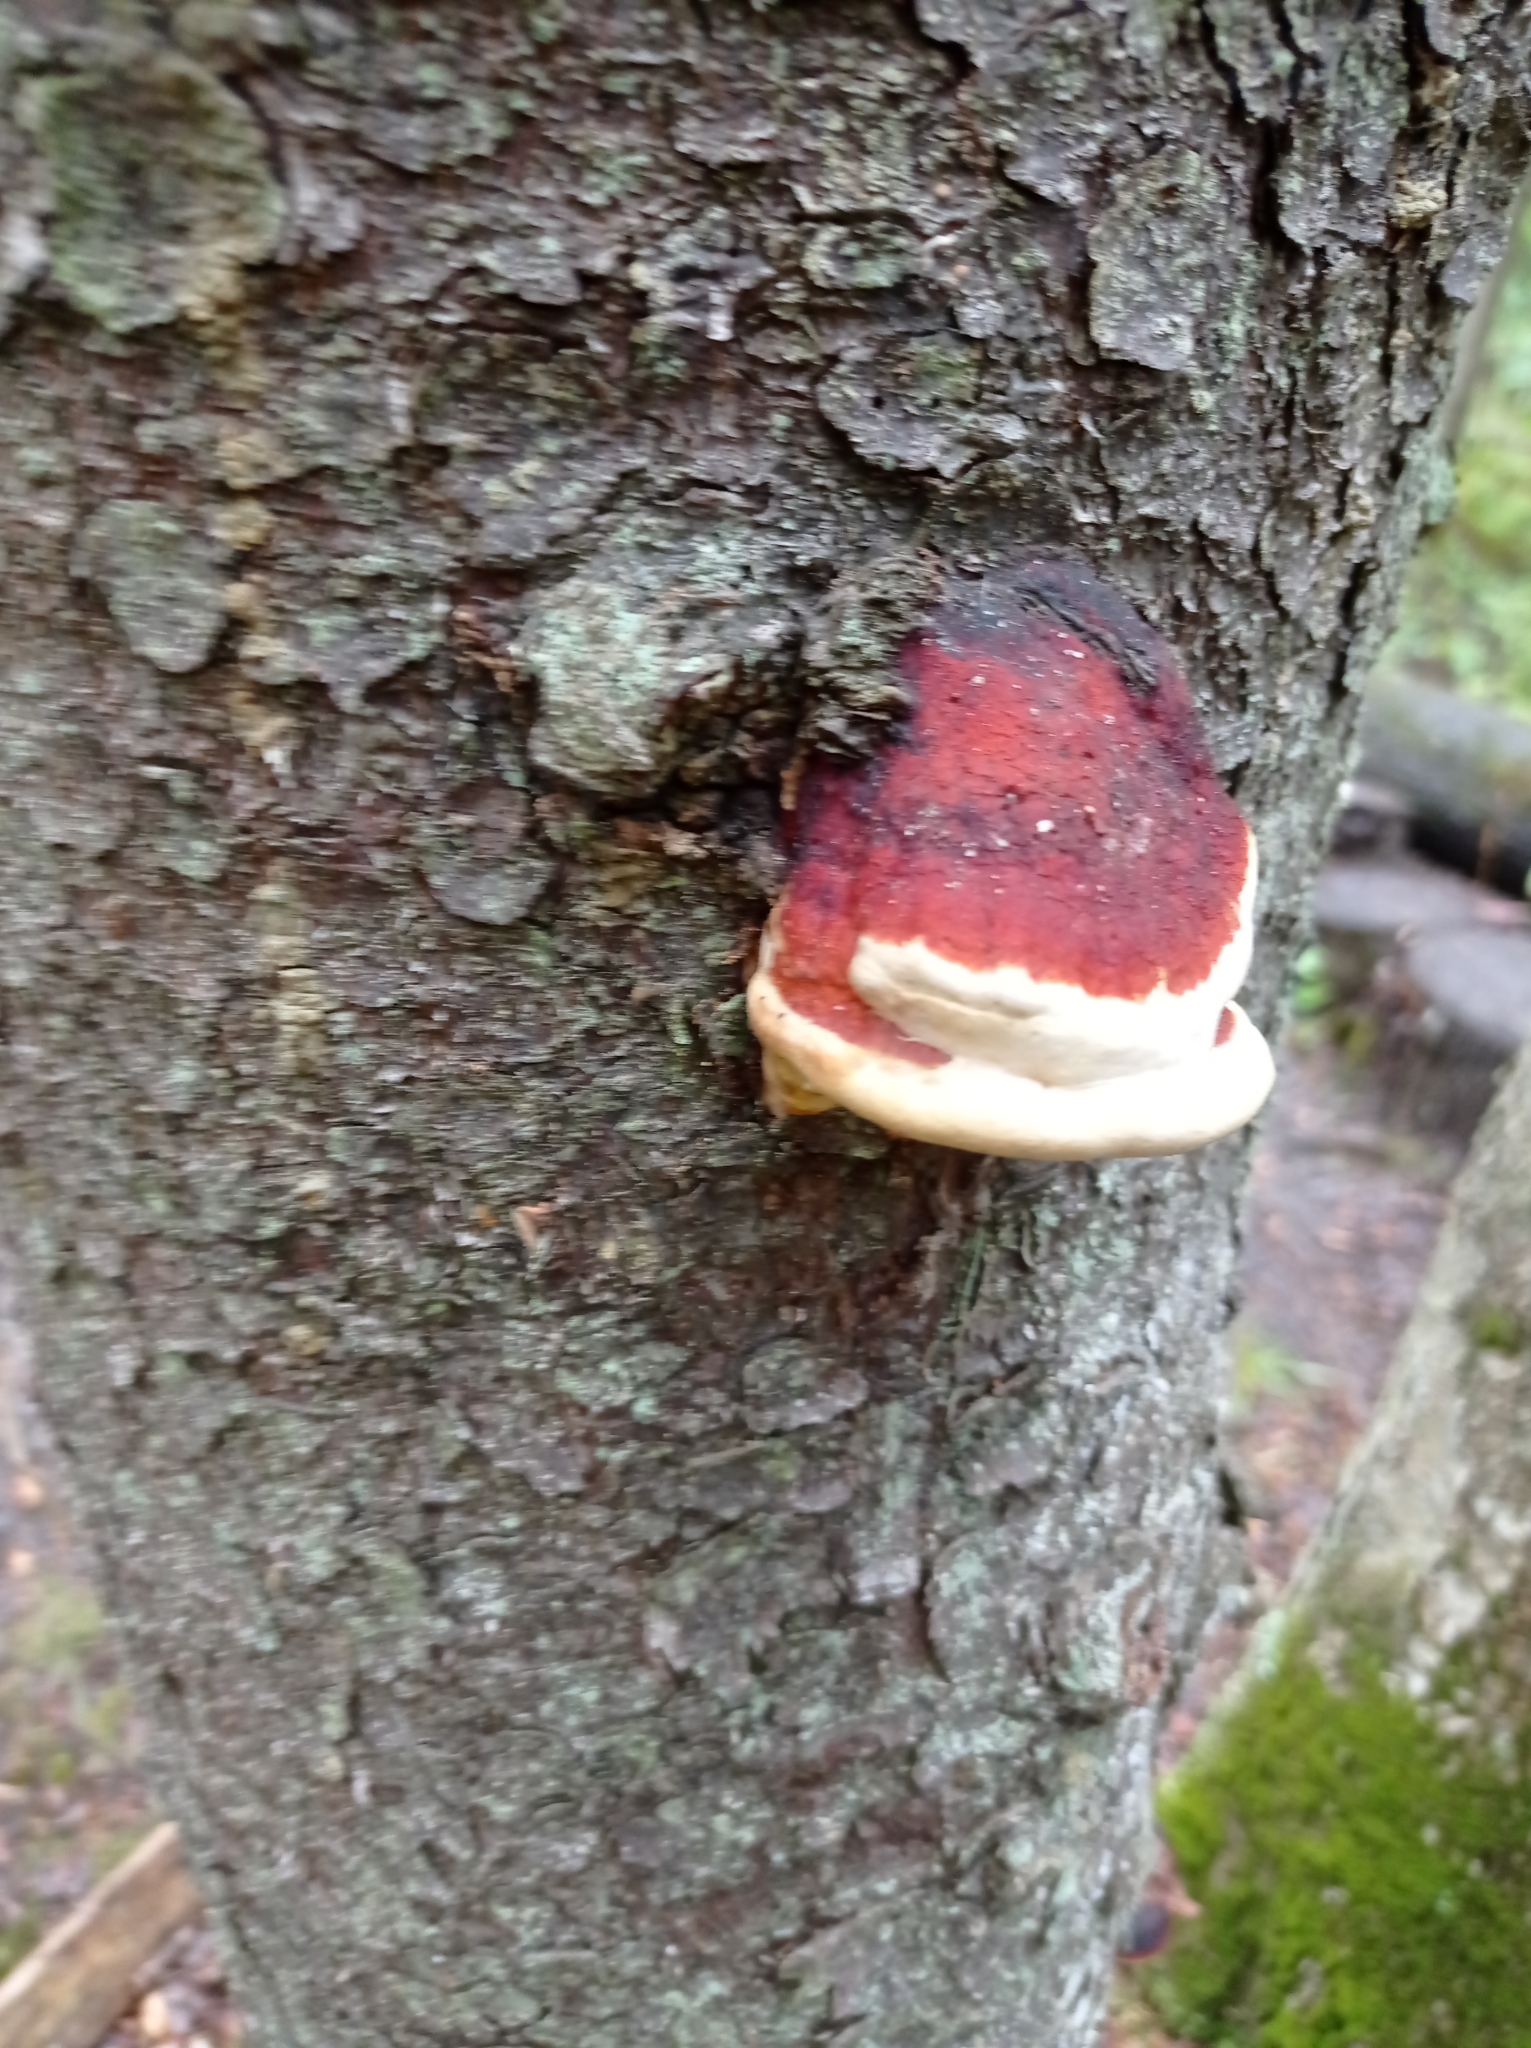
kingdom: Fungi
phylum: Basidiomycota
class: Agaricomycetes
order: Polyporales
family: Fomitopsidaceae
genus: Fomitopsis
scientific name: Fomitopsis pinicola
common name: Red-belted bracket
